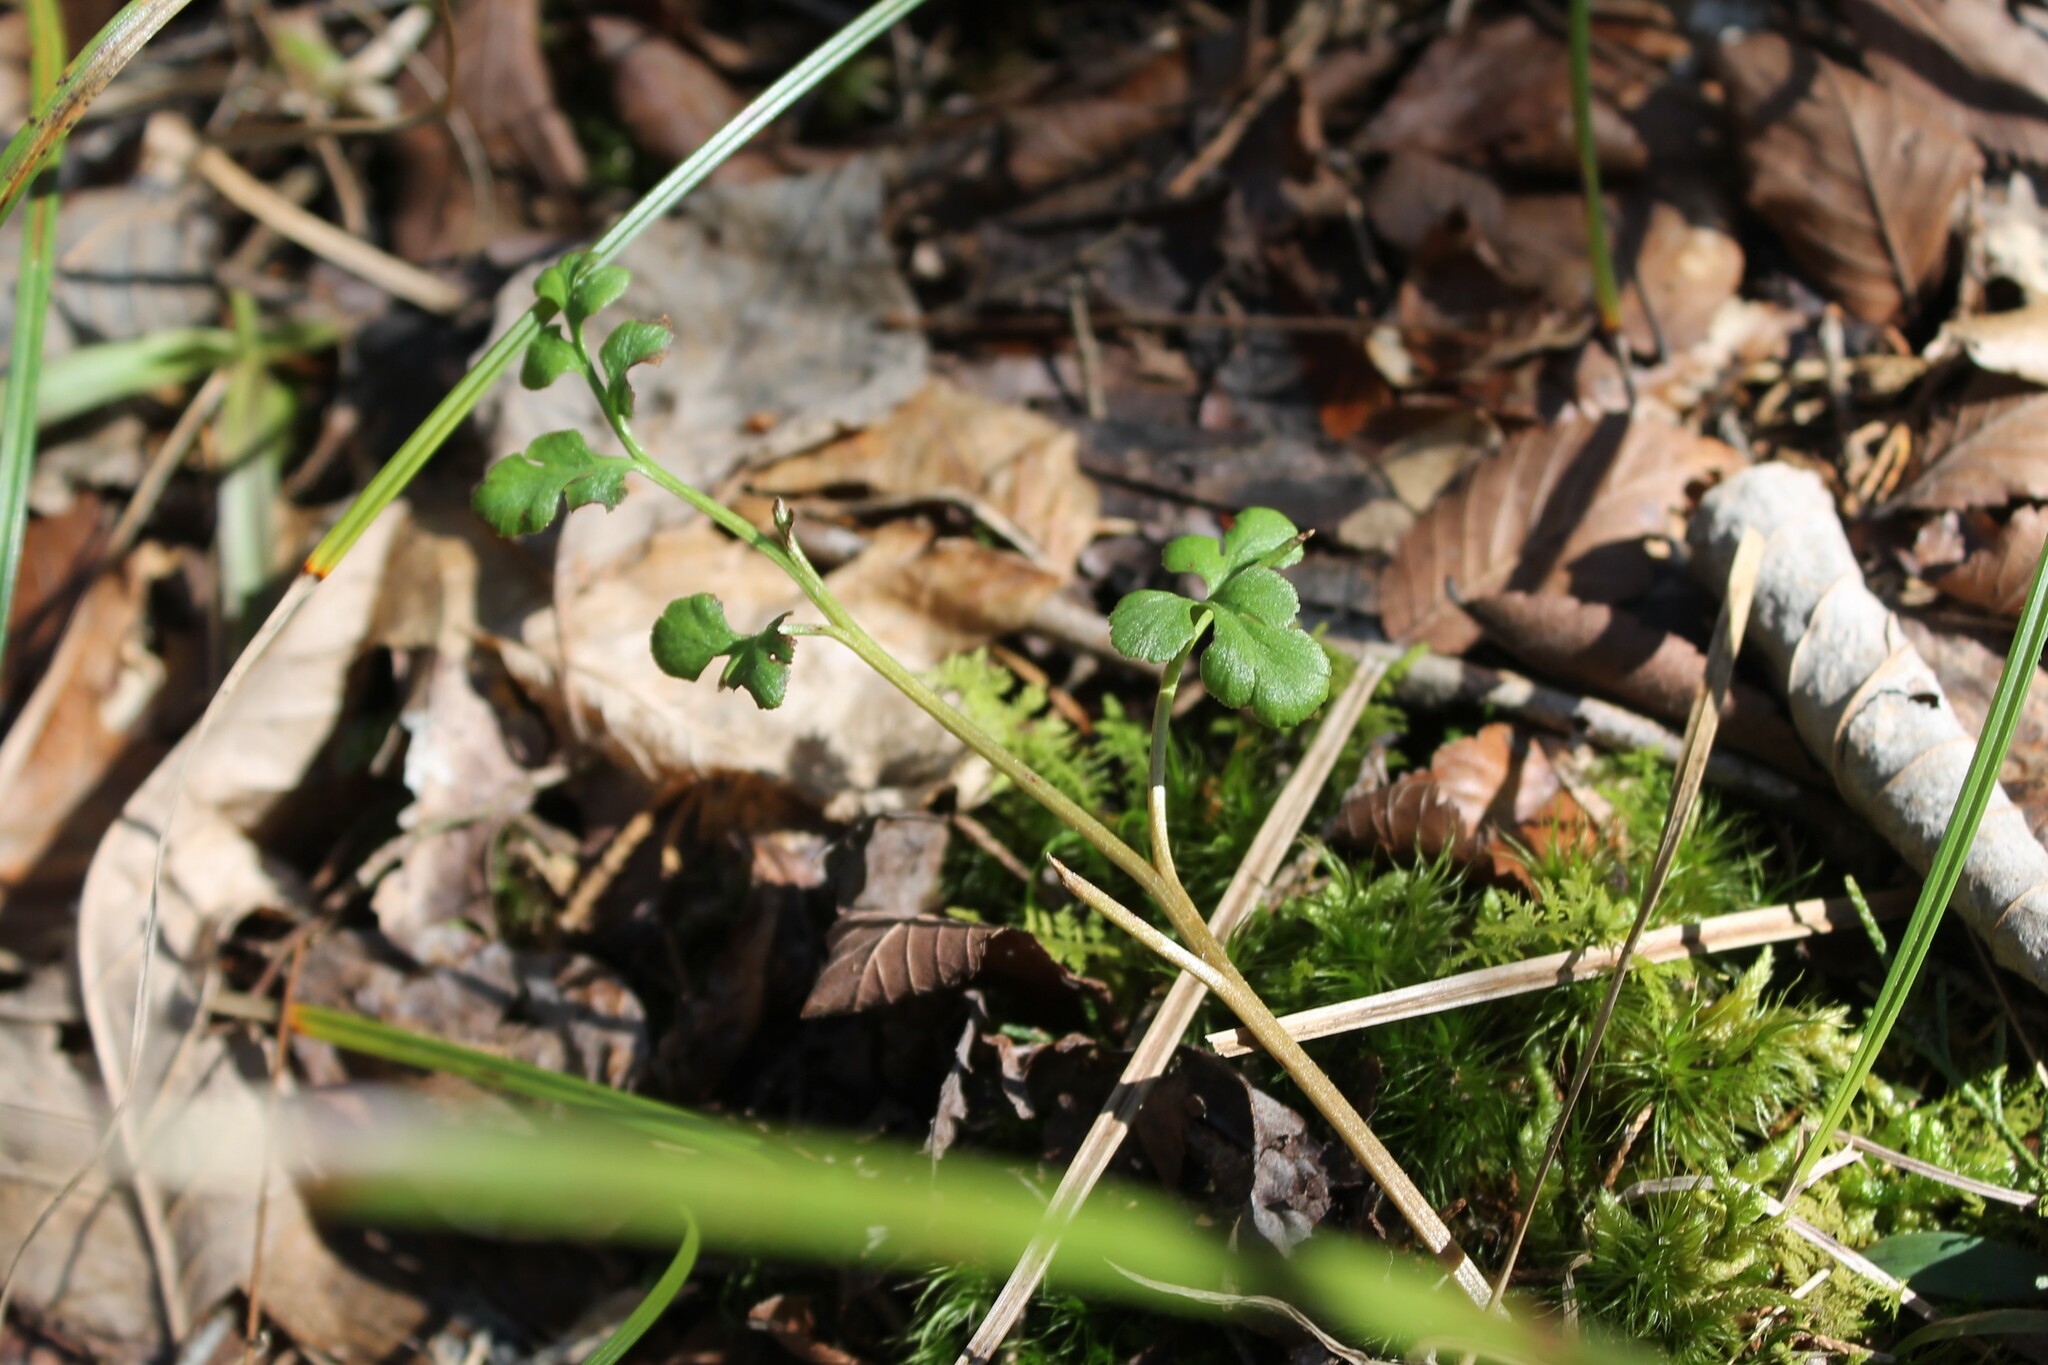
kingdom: Plantae
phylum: Tracheophyta
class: Polypodiopsida
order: Ophioglossales
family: Ophioglossaceae
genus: Sceptridium
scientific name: Sceptridium jenmanii
